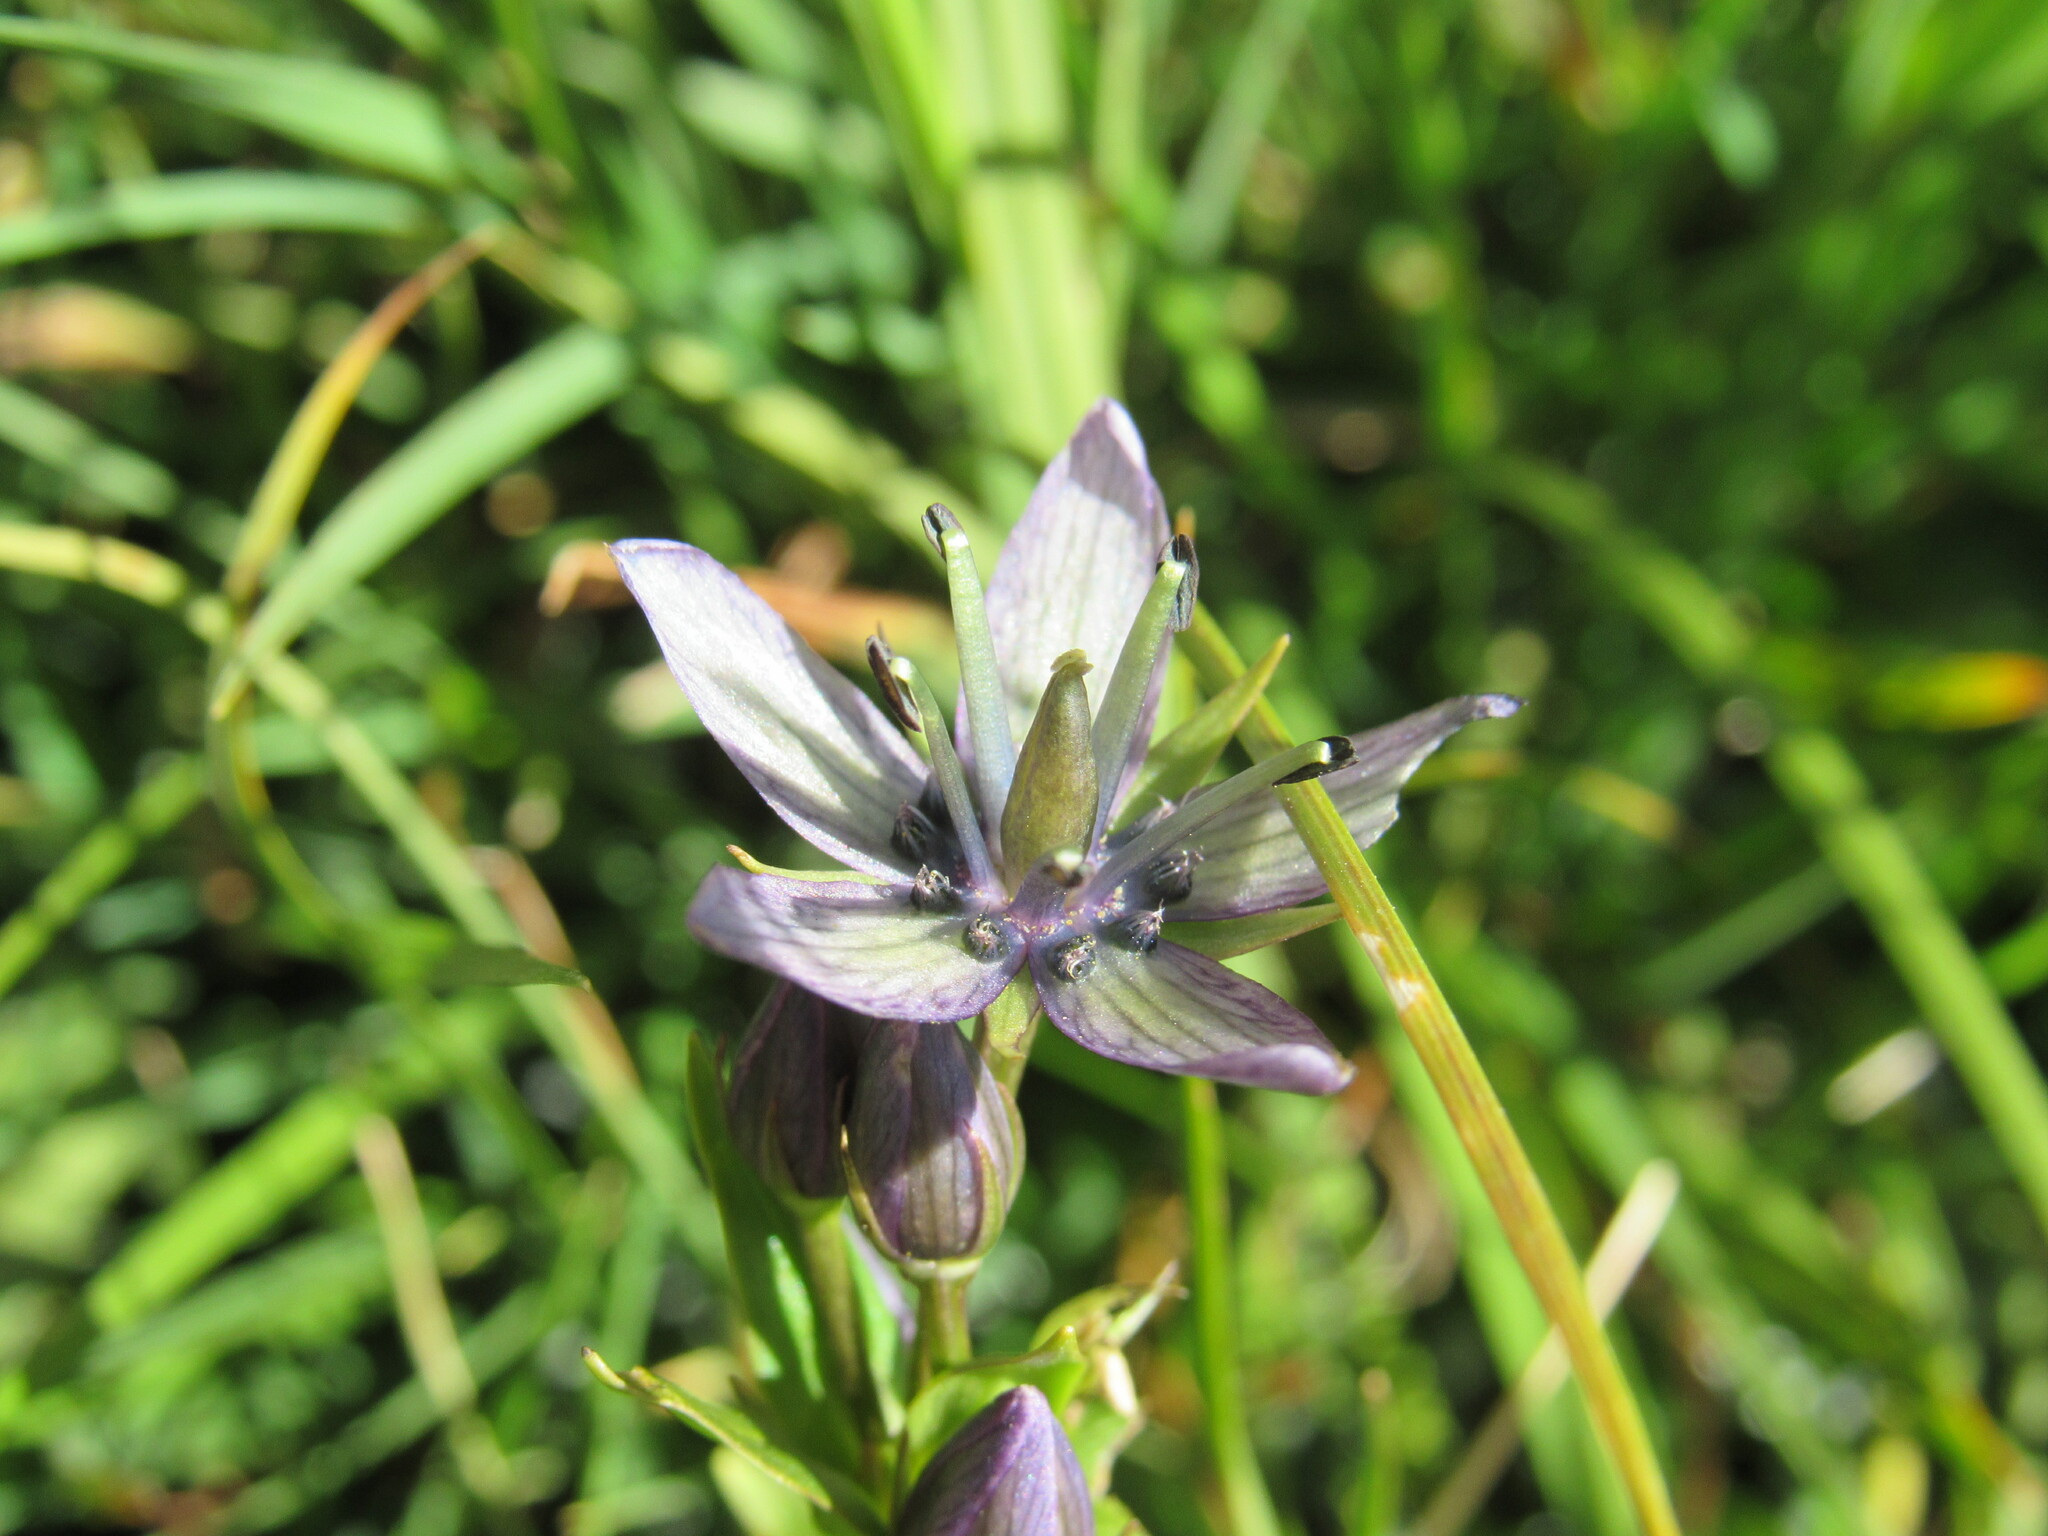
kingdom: Plantae
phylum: Tracheophyta
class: Magnoliopsida
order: Gentianales
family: Gentianaceae
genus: Swertia
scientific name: Swertia perennis
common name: Alpine bog swertia
